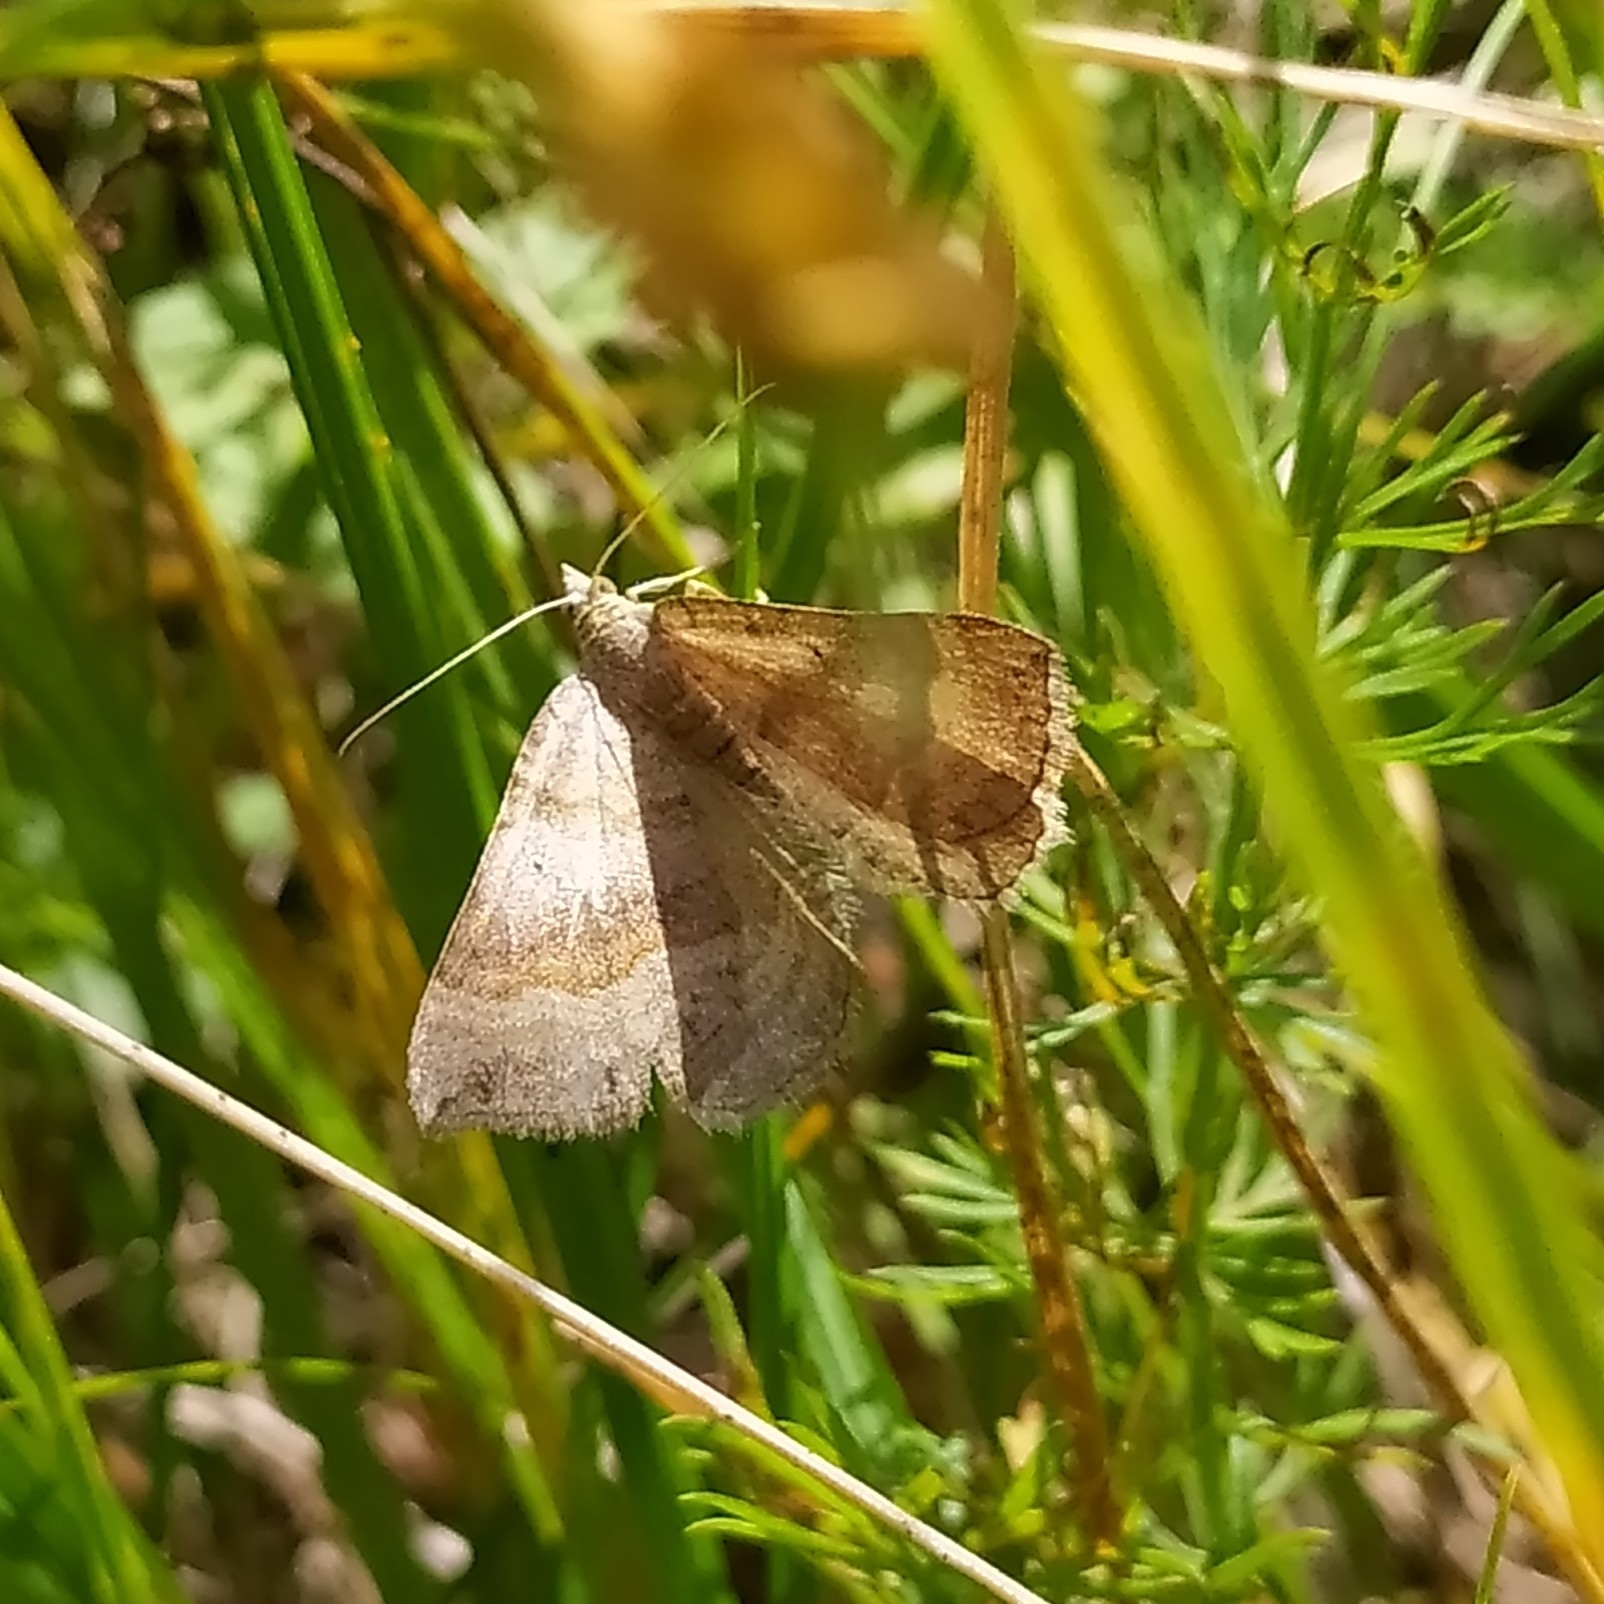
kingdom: Animalia
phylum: Arthropoda
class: Insecta
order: Lepidoptera
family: Geometridae
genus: Scotopteryx
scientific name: Scotopteryx chenopodiata
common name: Shaded broad-bar
